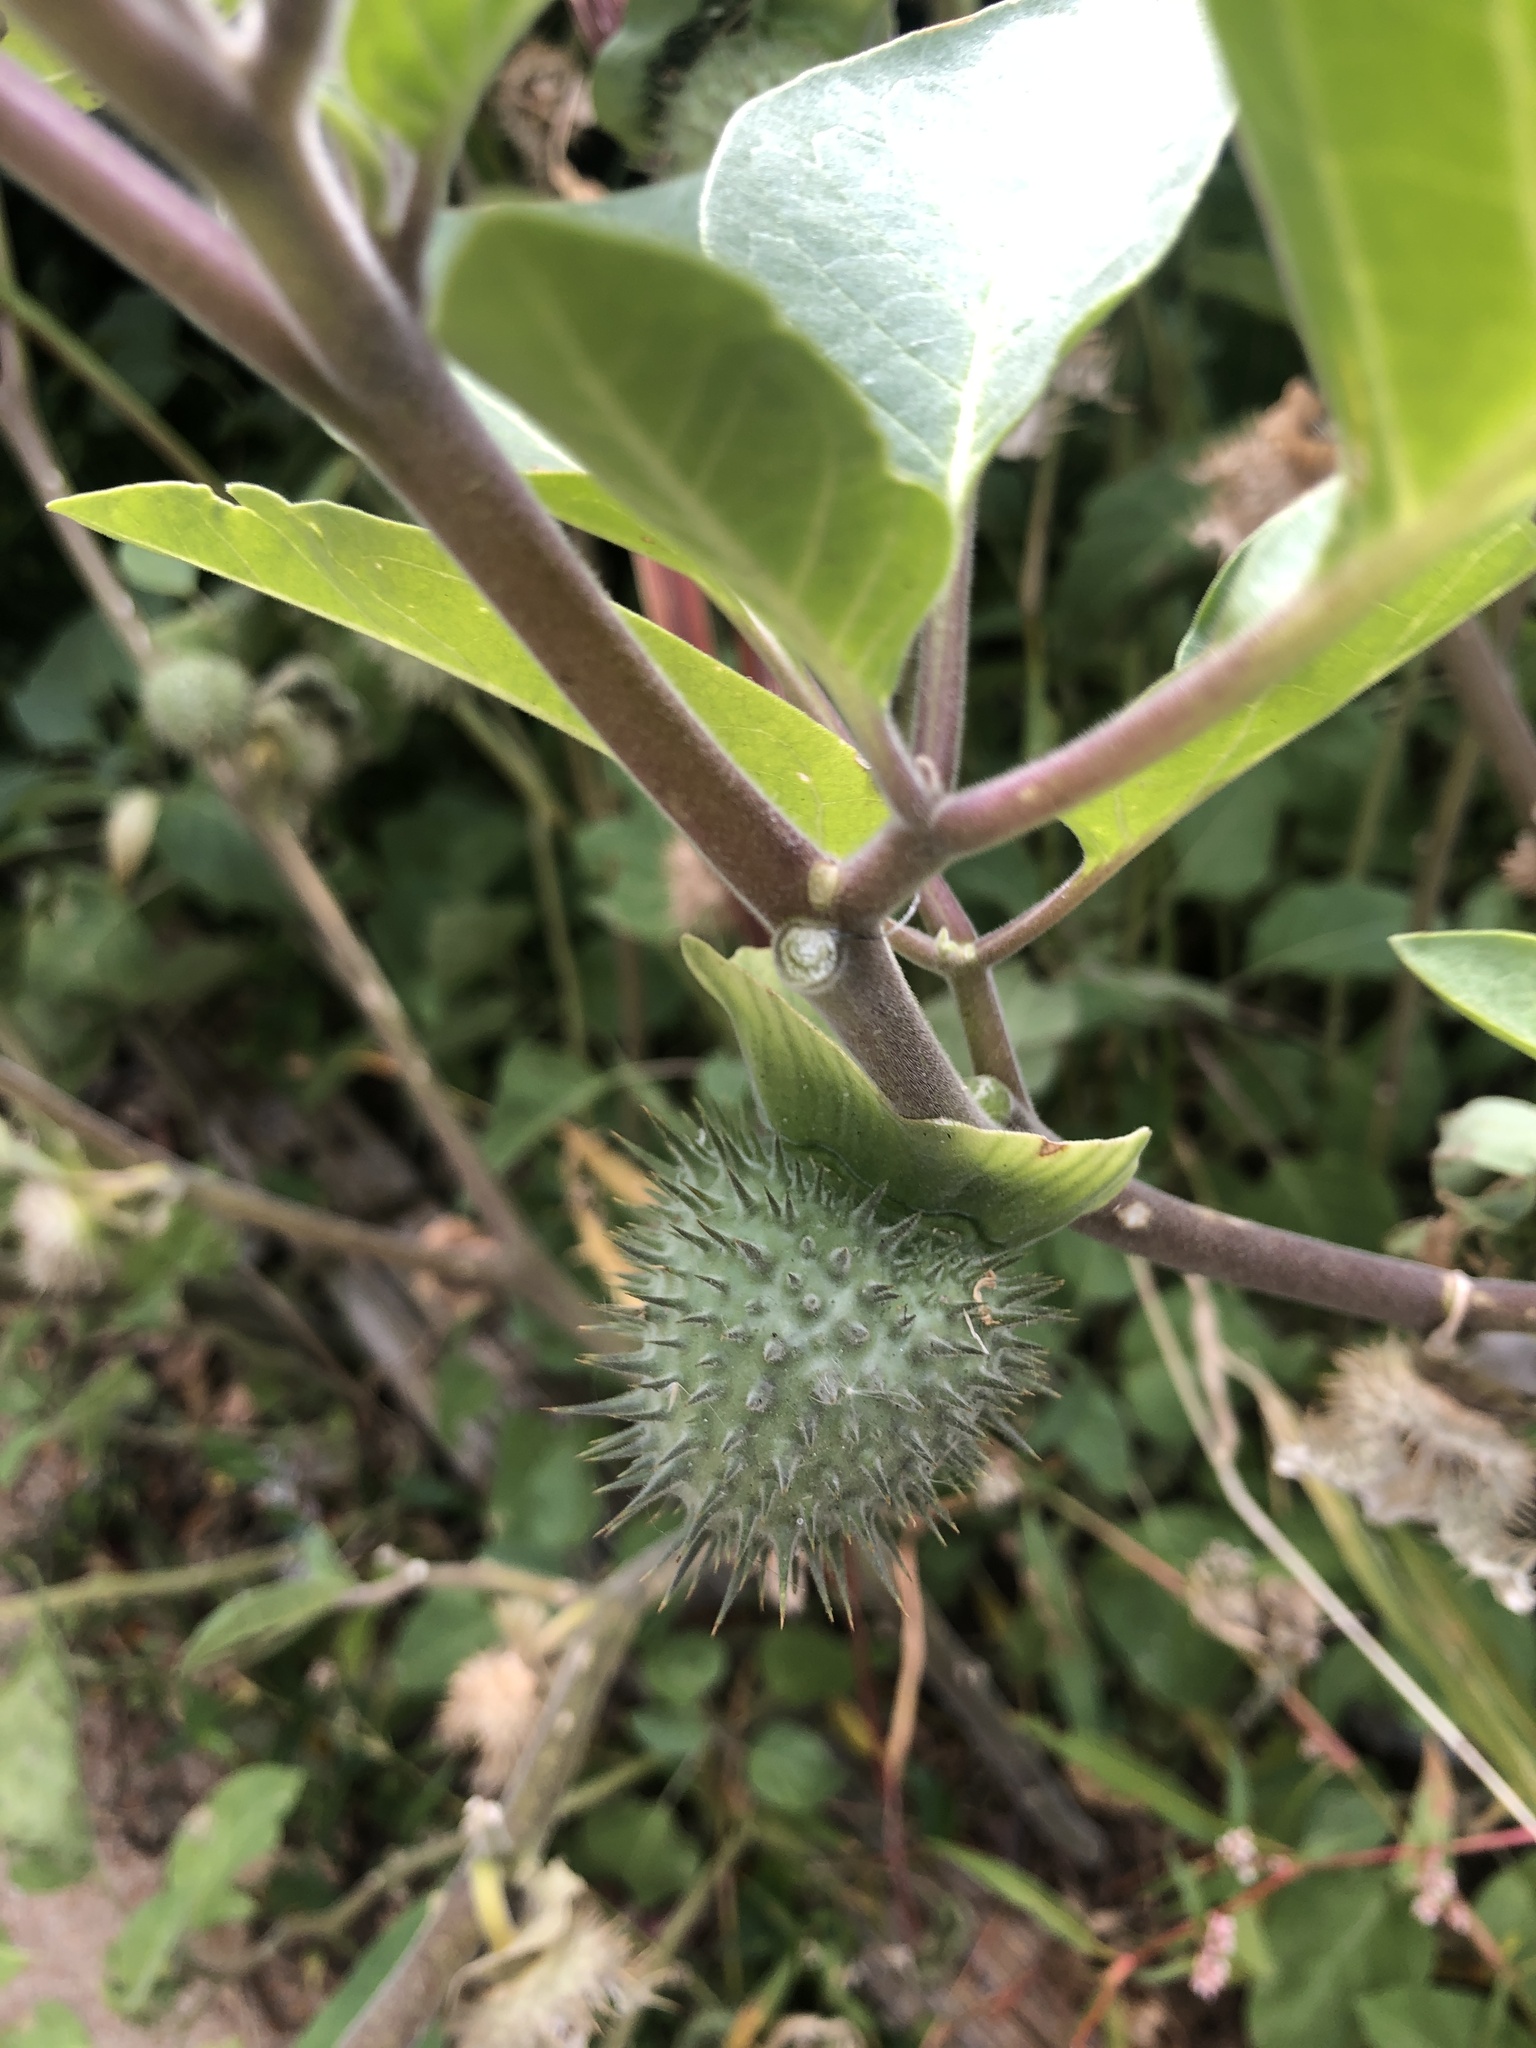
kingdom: Plantae
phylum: Tracheophyta
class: Magnoliopsida
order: Solanales
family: Solanaceae
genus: Datura
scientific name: Datura innoxia
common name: Downy thorn-apple
